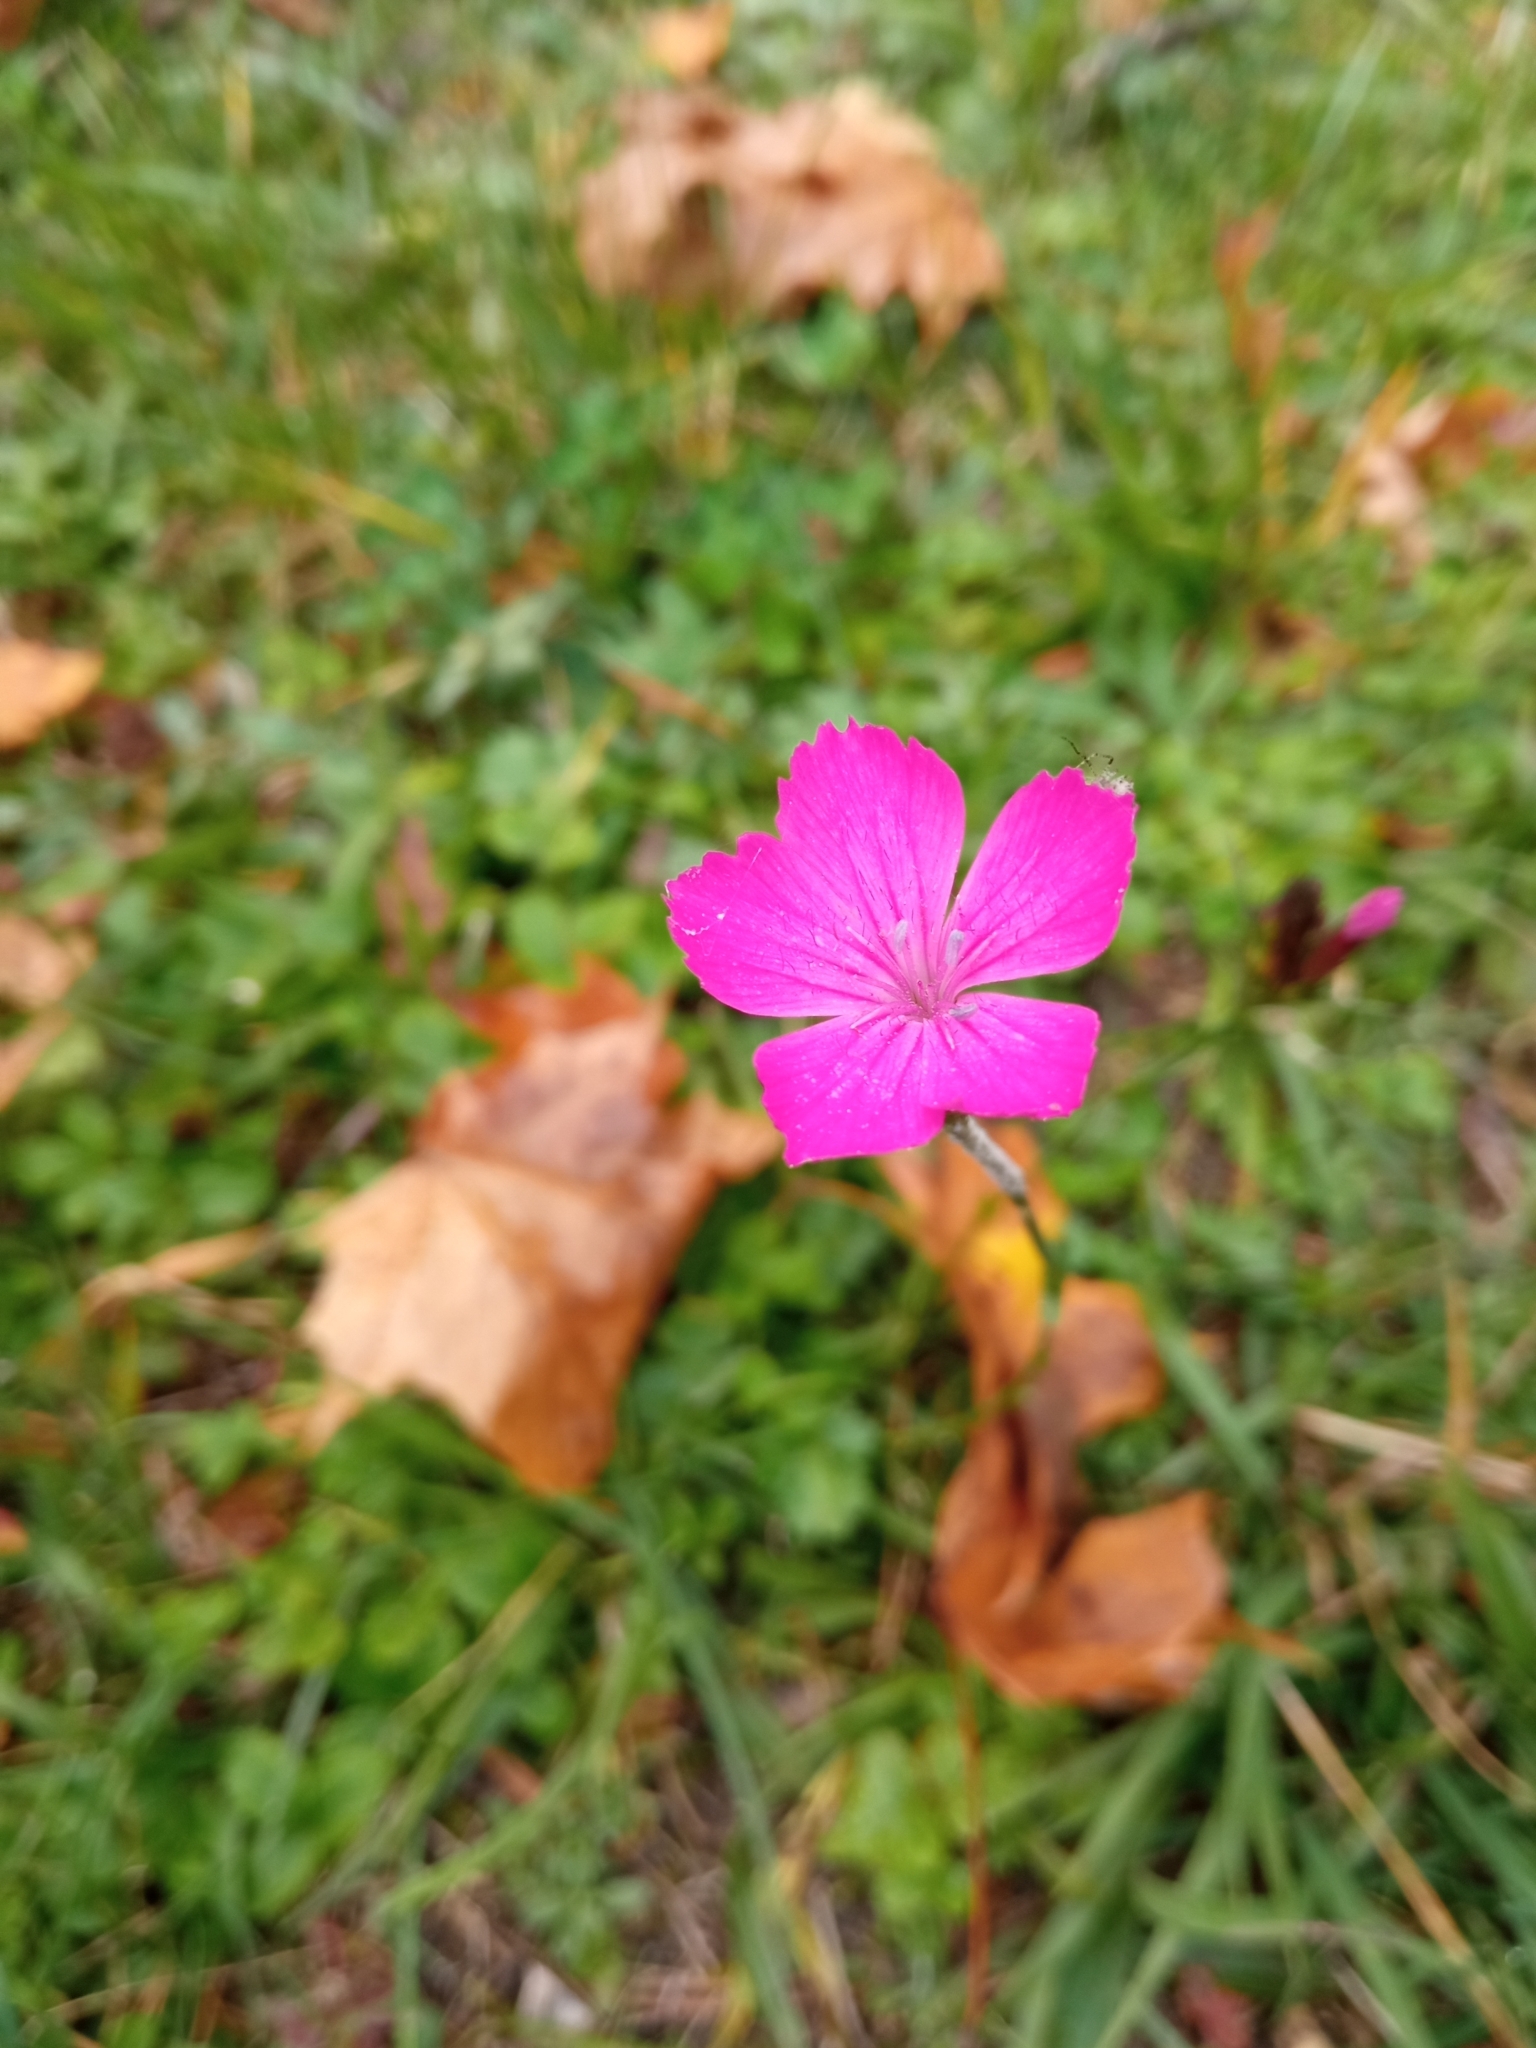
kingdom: Plantae
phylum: Tracheophyta
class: Magnoliopsida
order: Caryophyllales
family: Caryophyllaceae
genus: Dianthus
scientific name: Dianthus carthusianorum
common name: Carthusian pink
